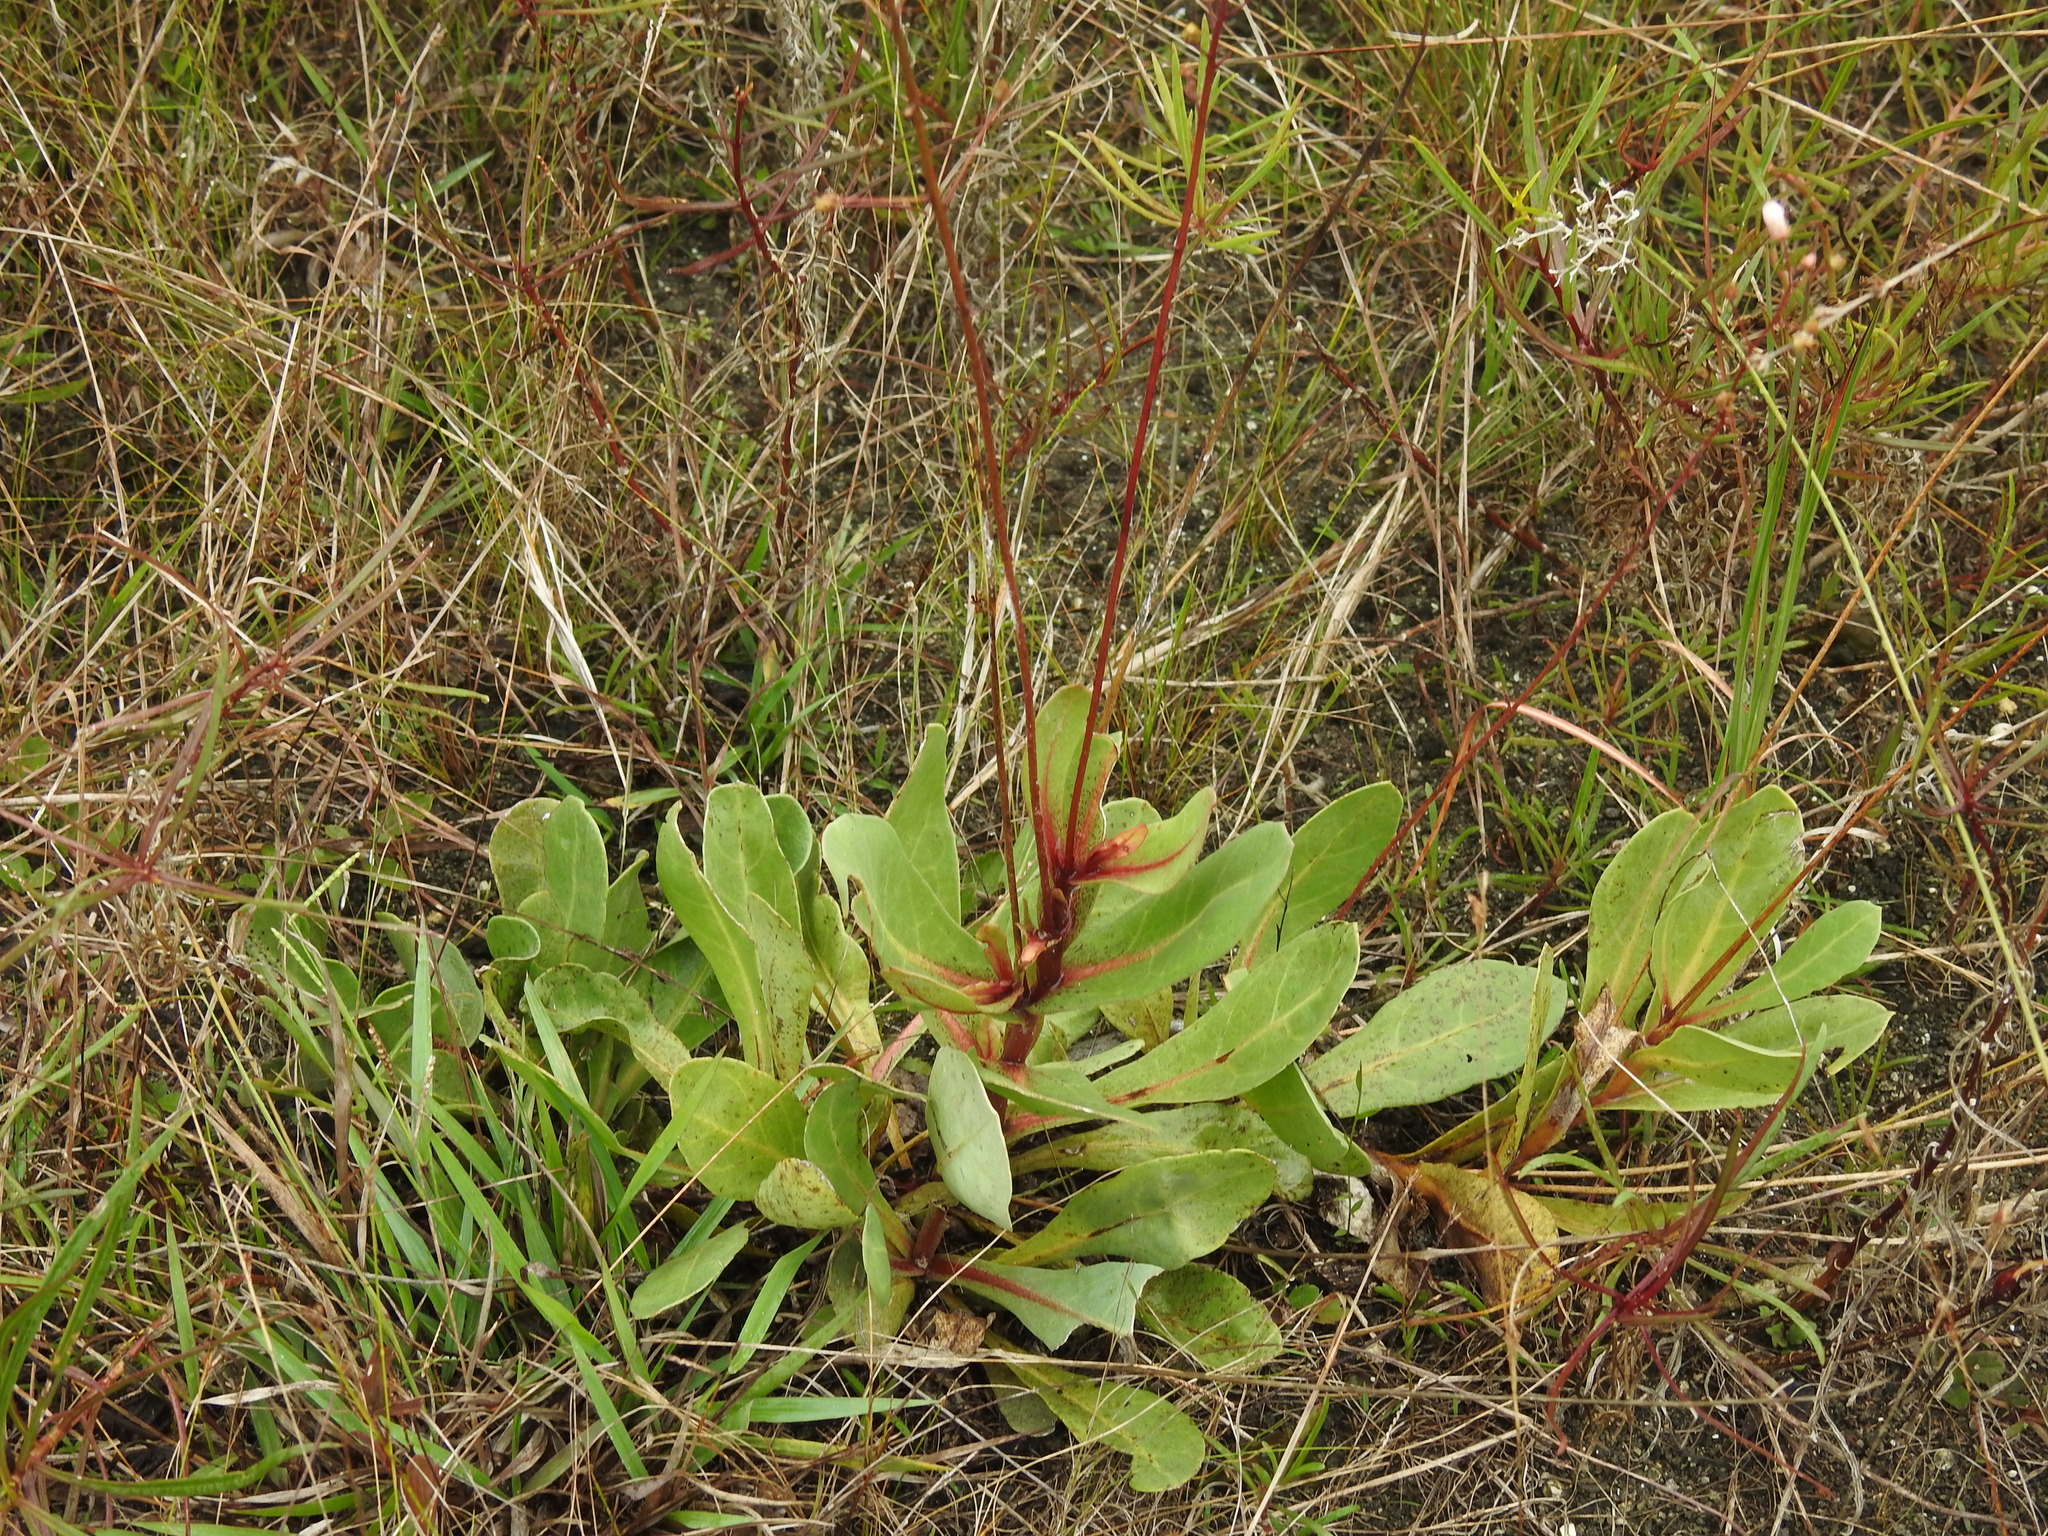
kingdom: Plantae
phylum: Tracheophyta
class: Magnoliopsida
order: Ericales
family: Primulaceae
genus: Samolus
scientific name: Samolus ebracteatus
